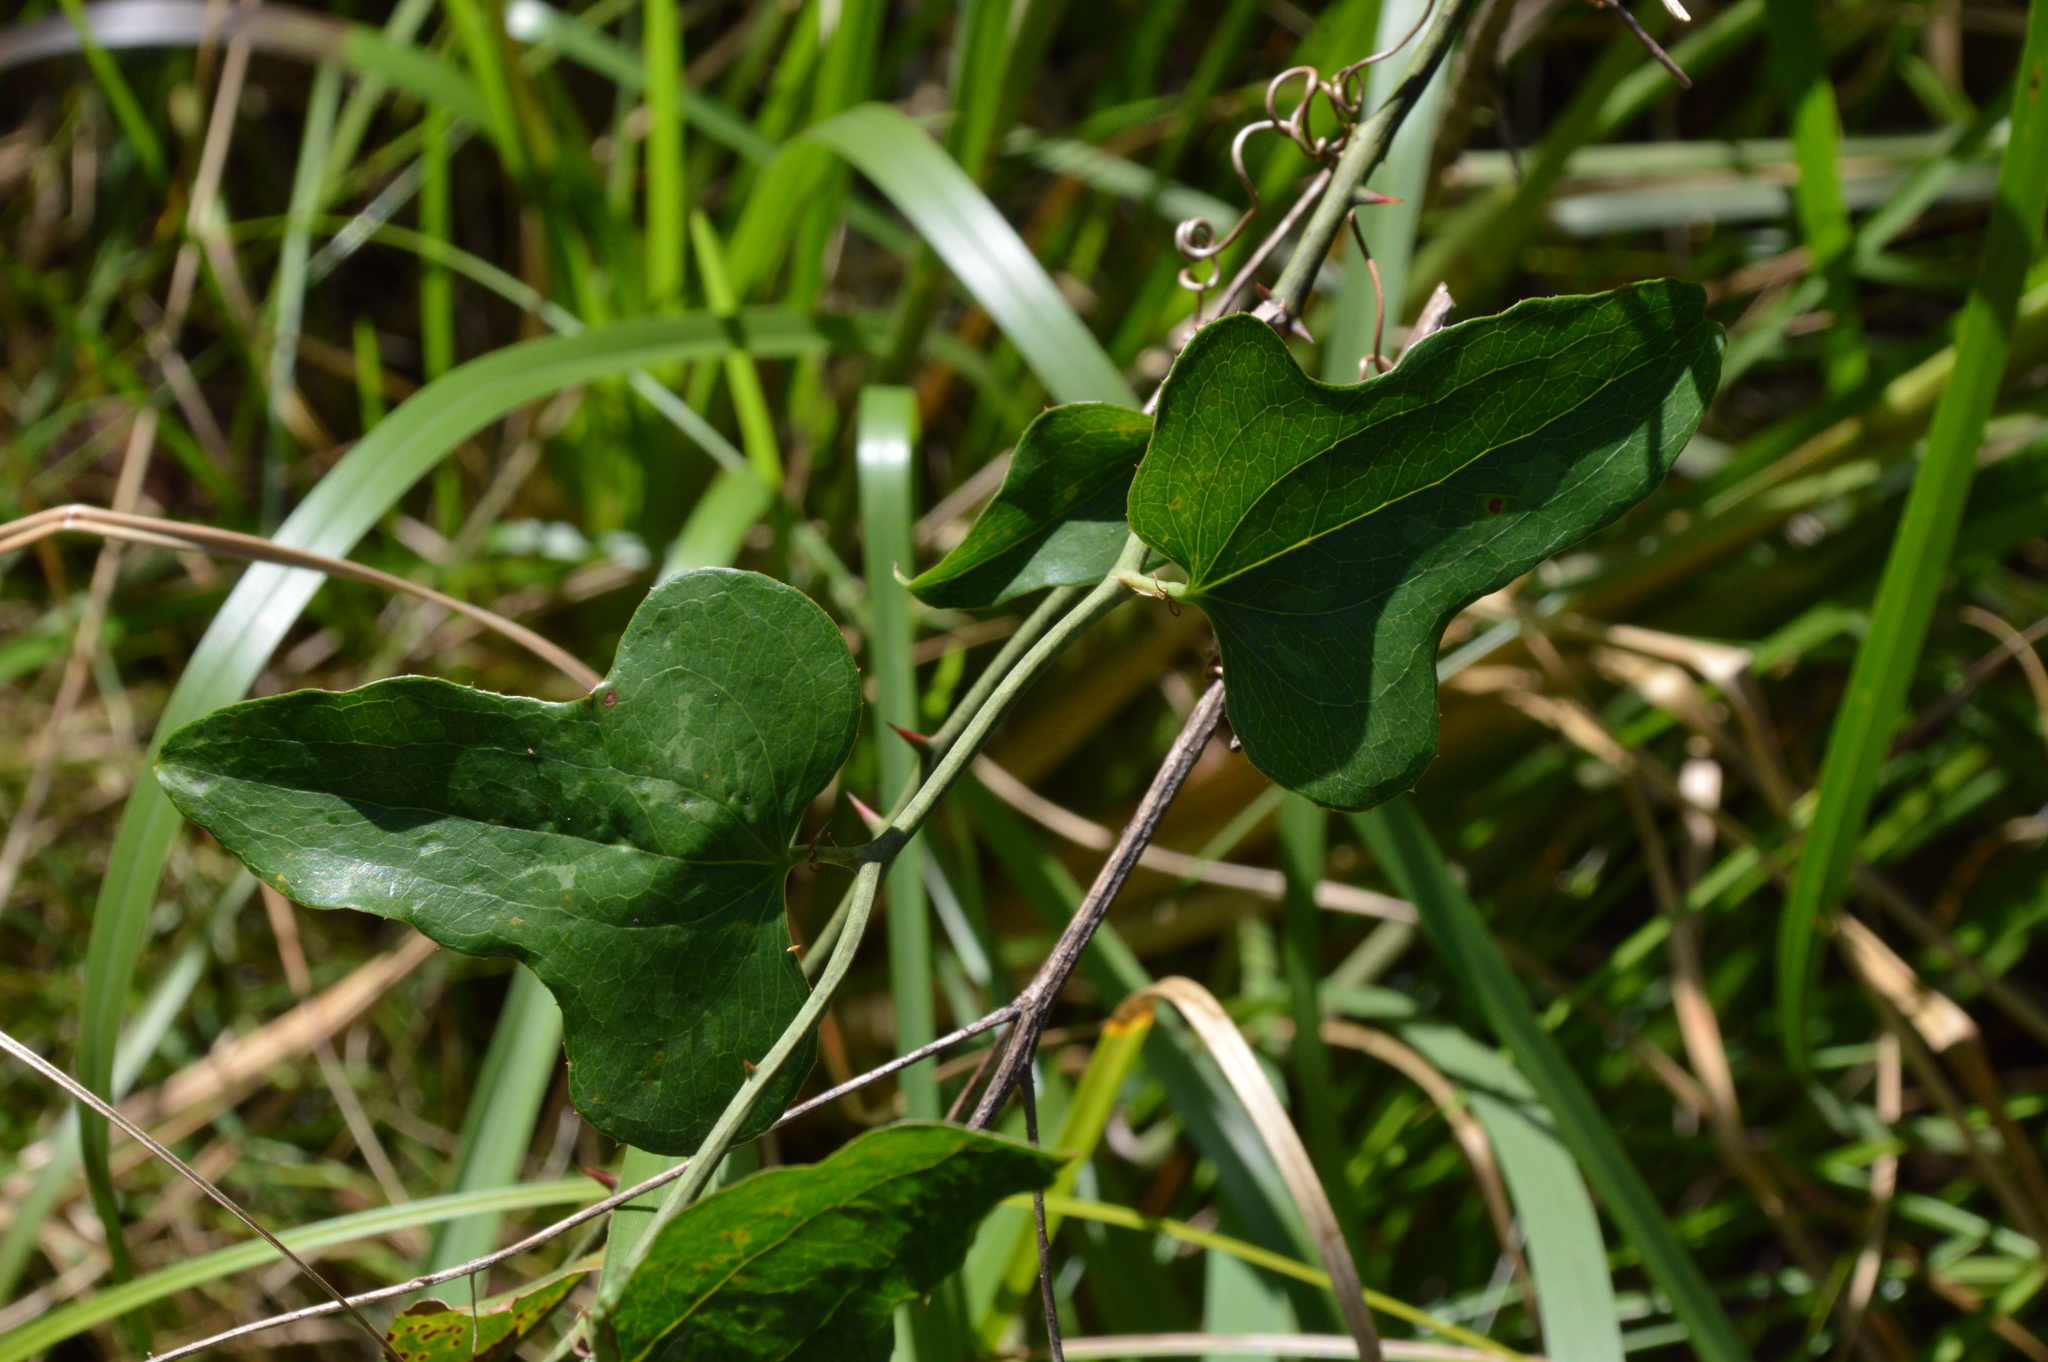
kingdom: Plantae
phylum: Tracheophyta
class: Liliopsida
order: Liliales
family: Smilacaceae
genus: Smilax
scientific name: Smilax bona-nox
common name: Catbrier
